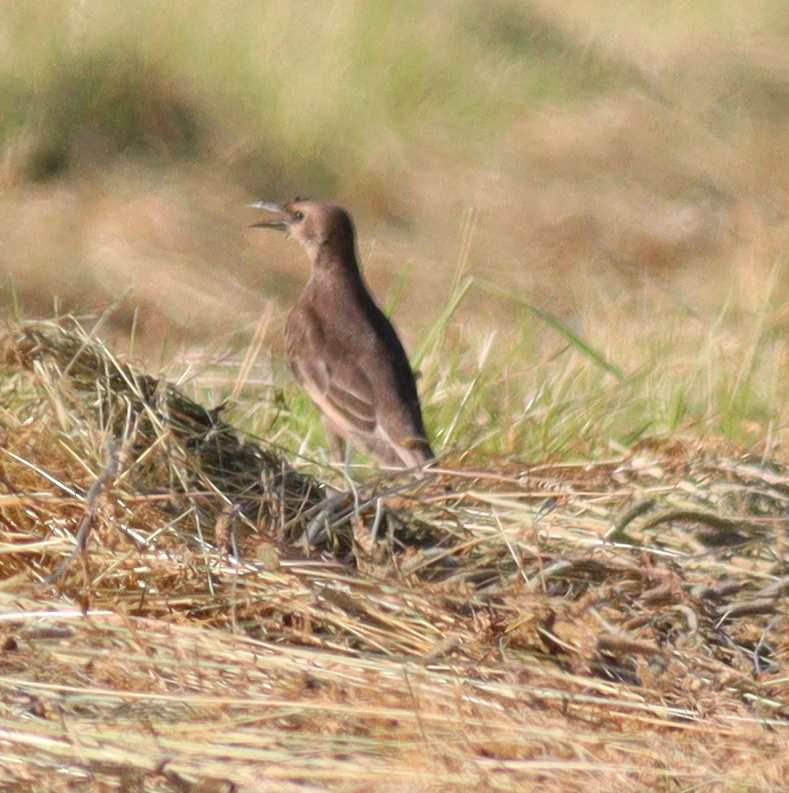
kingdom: Animalia
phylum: Chordata
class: Aves
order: Passeriformes
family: Sturnidae
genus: Sturnus
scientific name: Sturnus vulgaris
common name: Common starling
